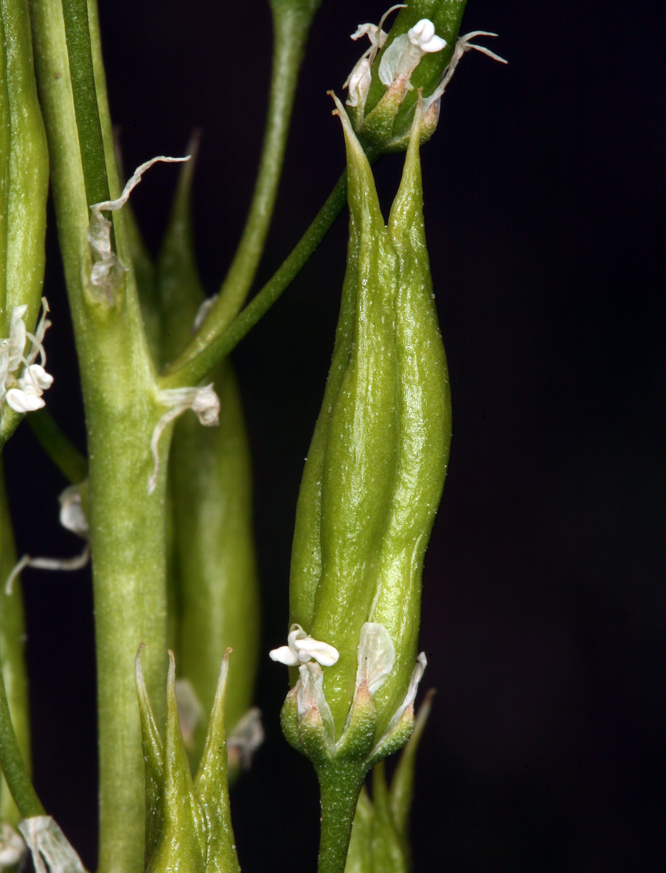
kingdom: Plantae
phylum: Tracheophyta
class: Liliopsida
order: Liliales
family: Melanthiaceae
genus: Toxicoscordion
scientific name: Toxicoscordion paniculatum
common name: Foothill death camas
